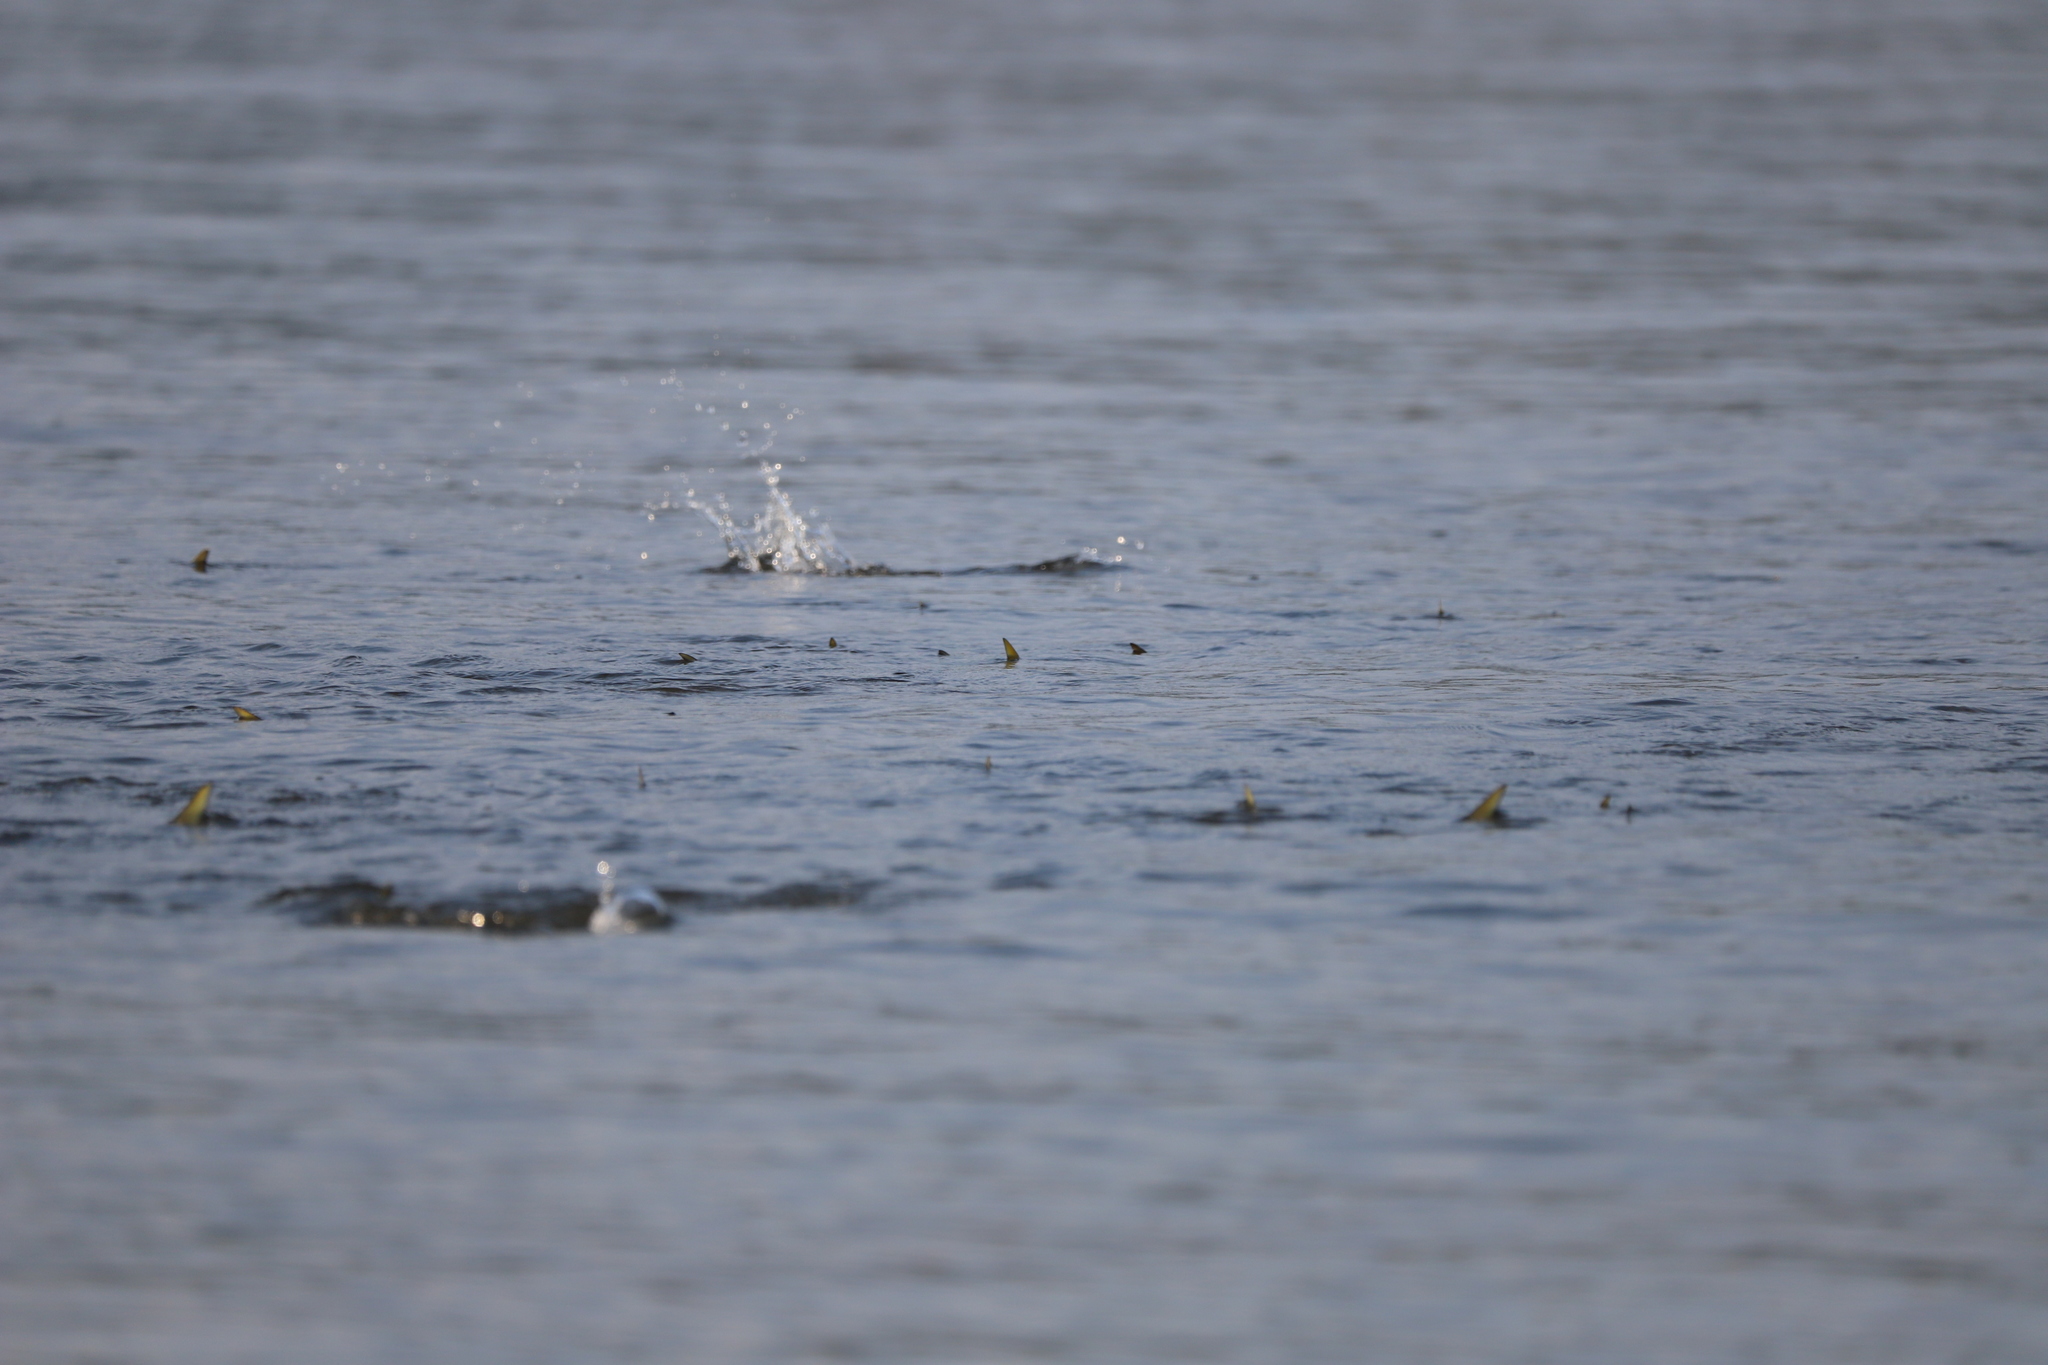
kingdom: Animalia
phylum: Chordata
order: Clupeiformes
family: Clupeidae
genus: Brevoortia
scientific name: Brevoortia tyrannus
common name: Atlantic menhaden
